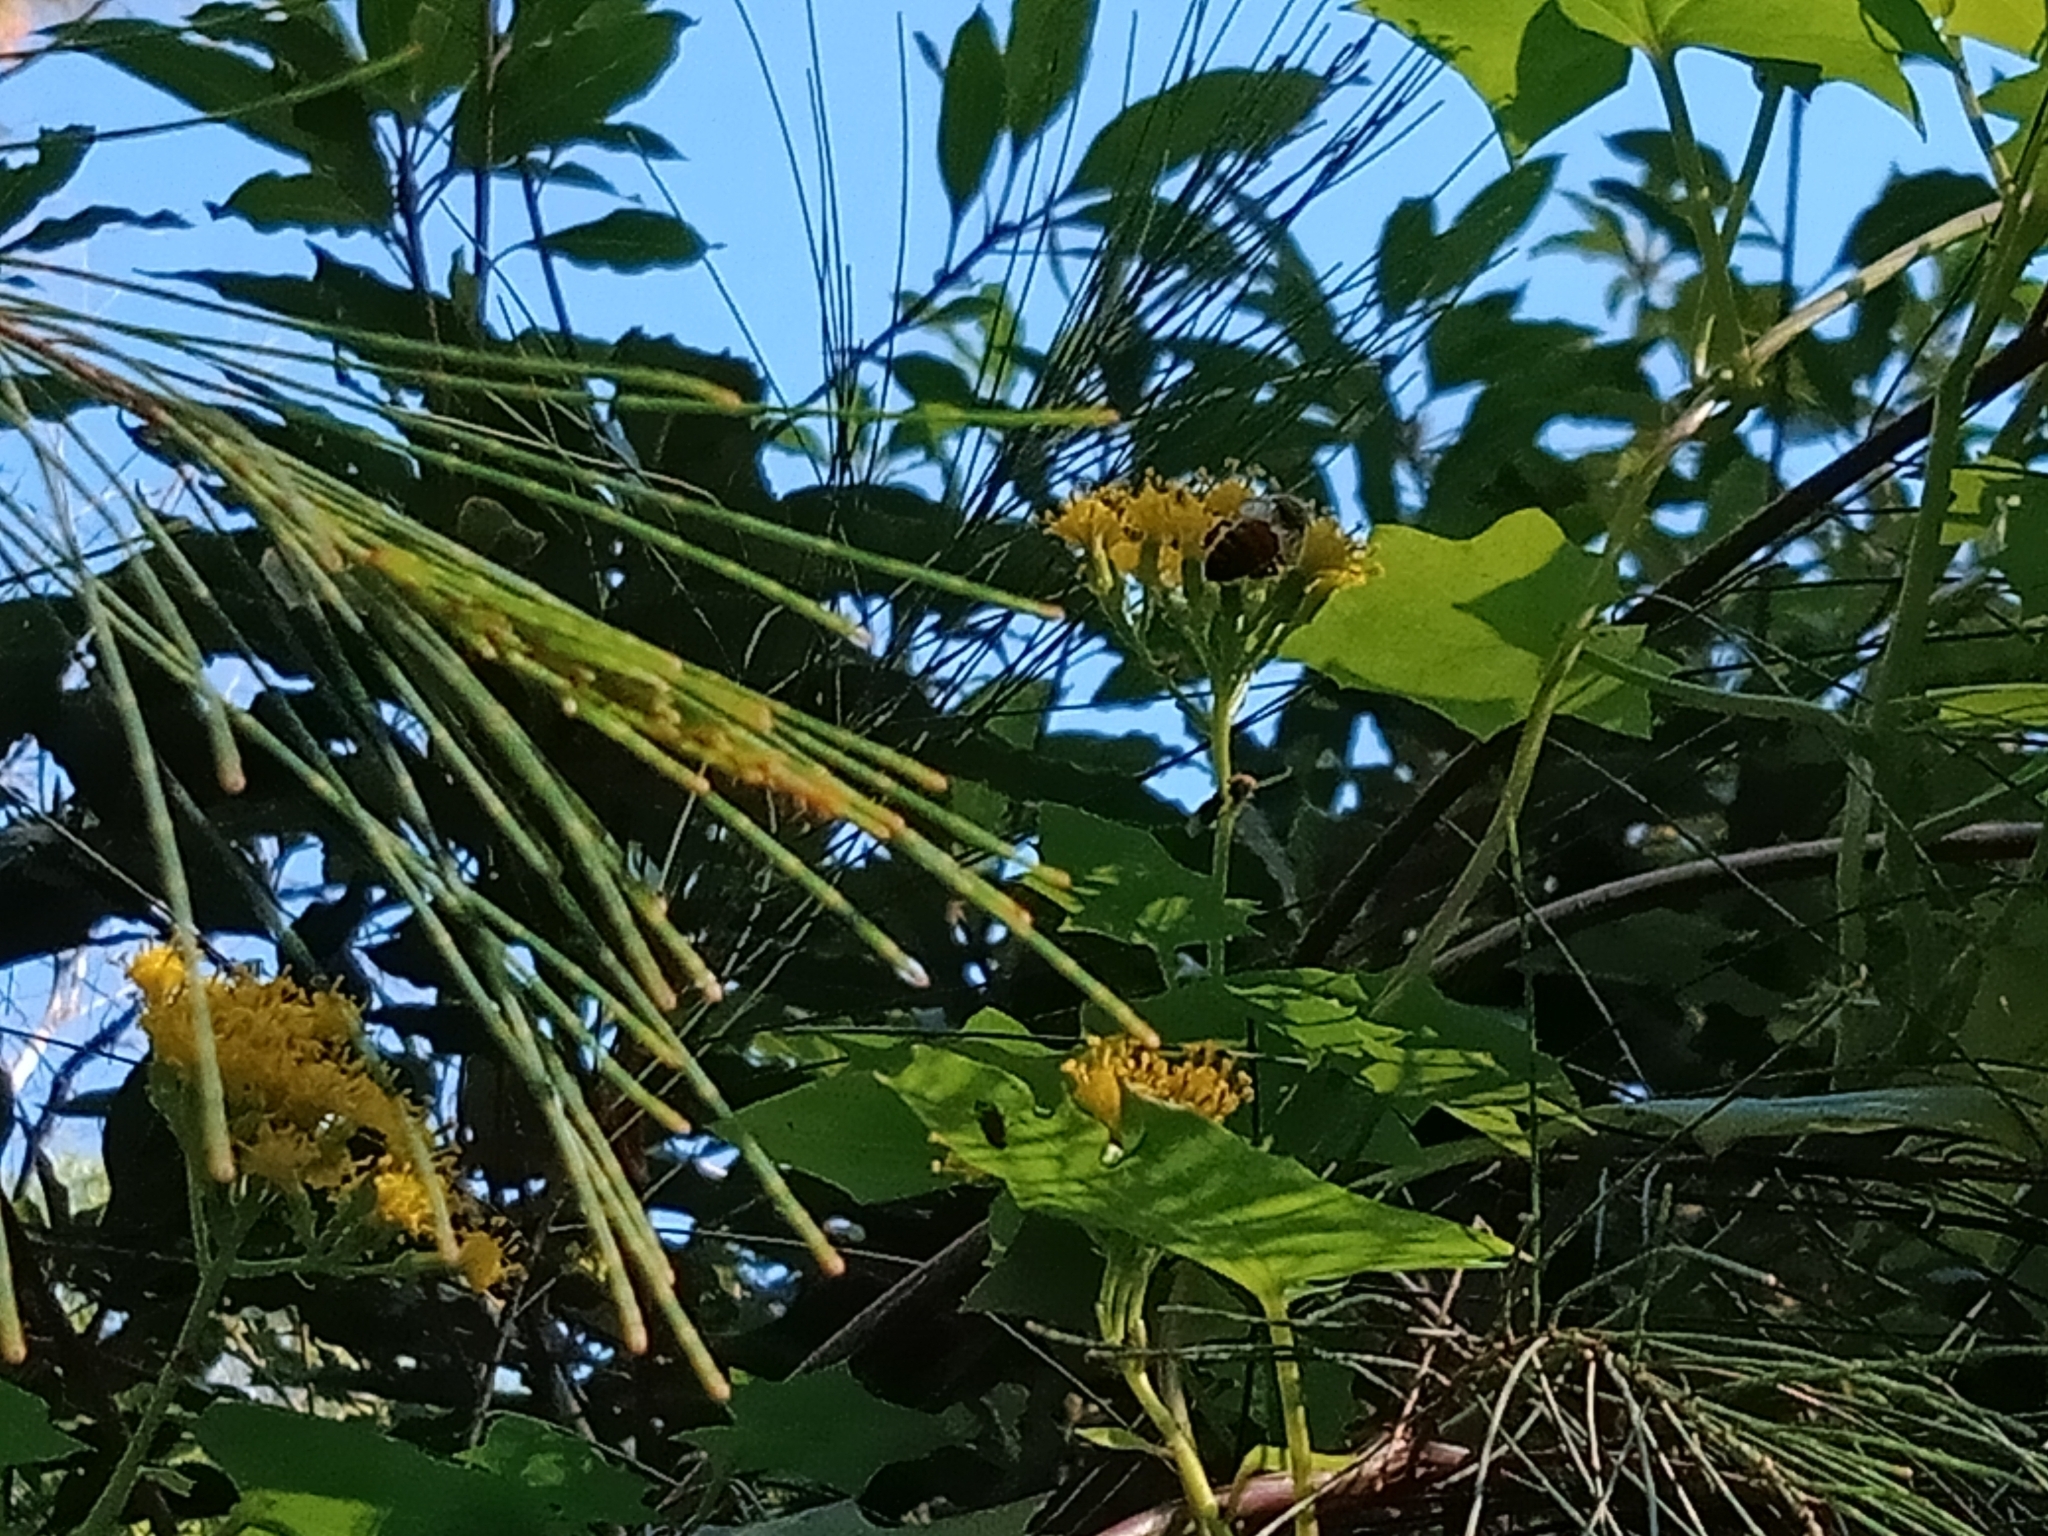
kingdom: Animalia
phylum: Arthropoda
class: Insecta
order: Hymenoptera
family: Apidae
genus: Apis
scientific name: Apis mellifera
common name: Honey bee
